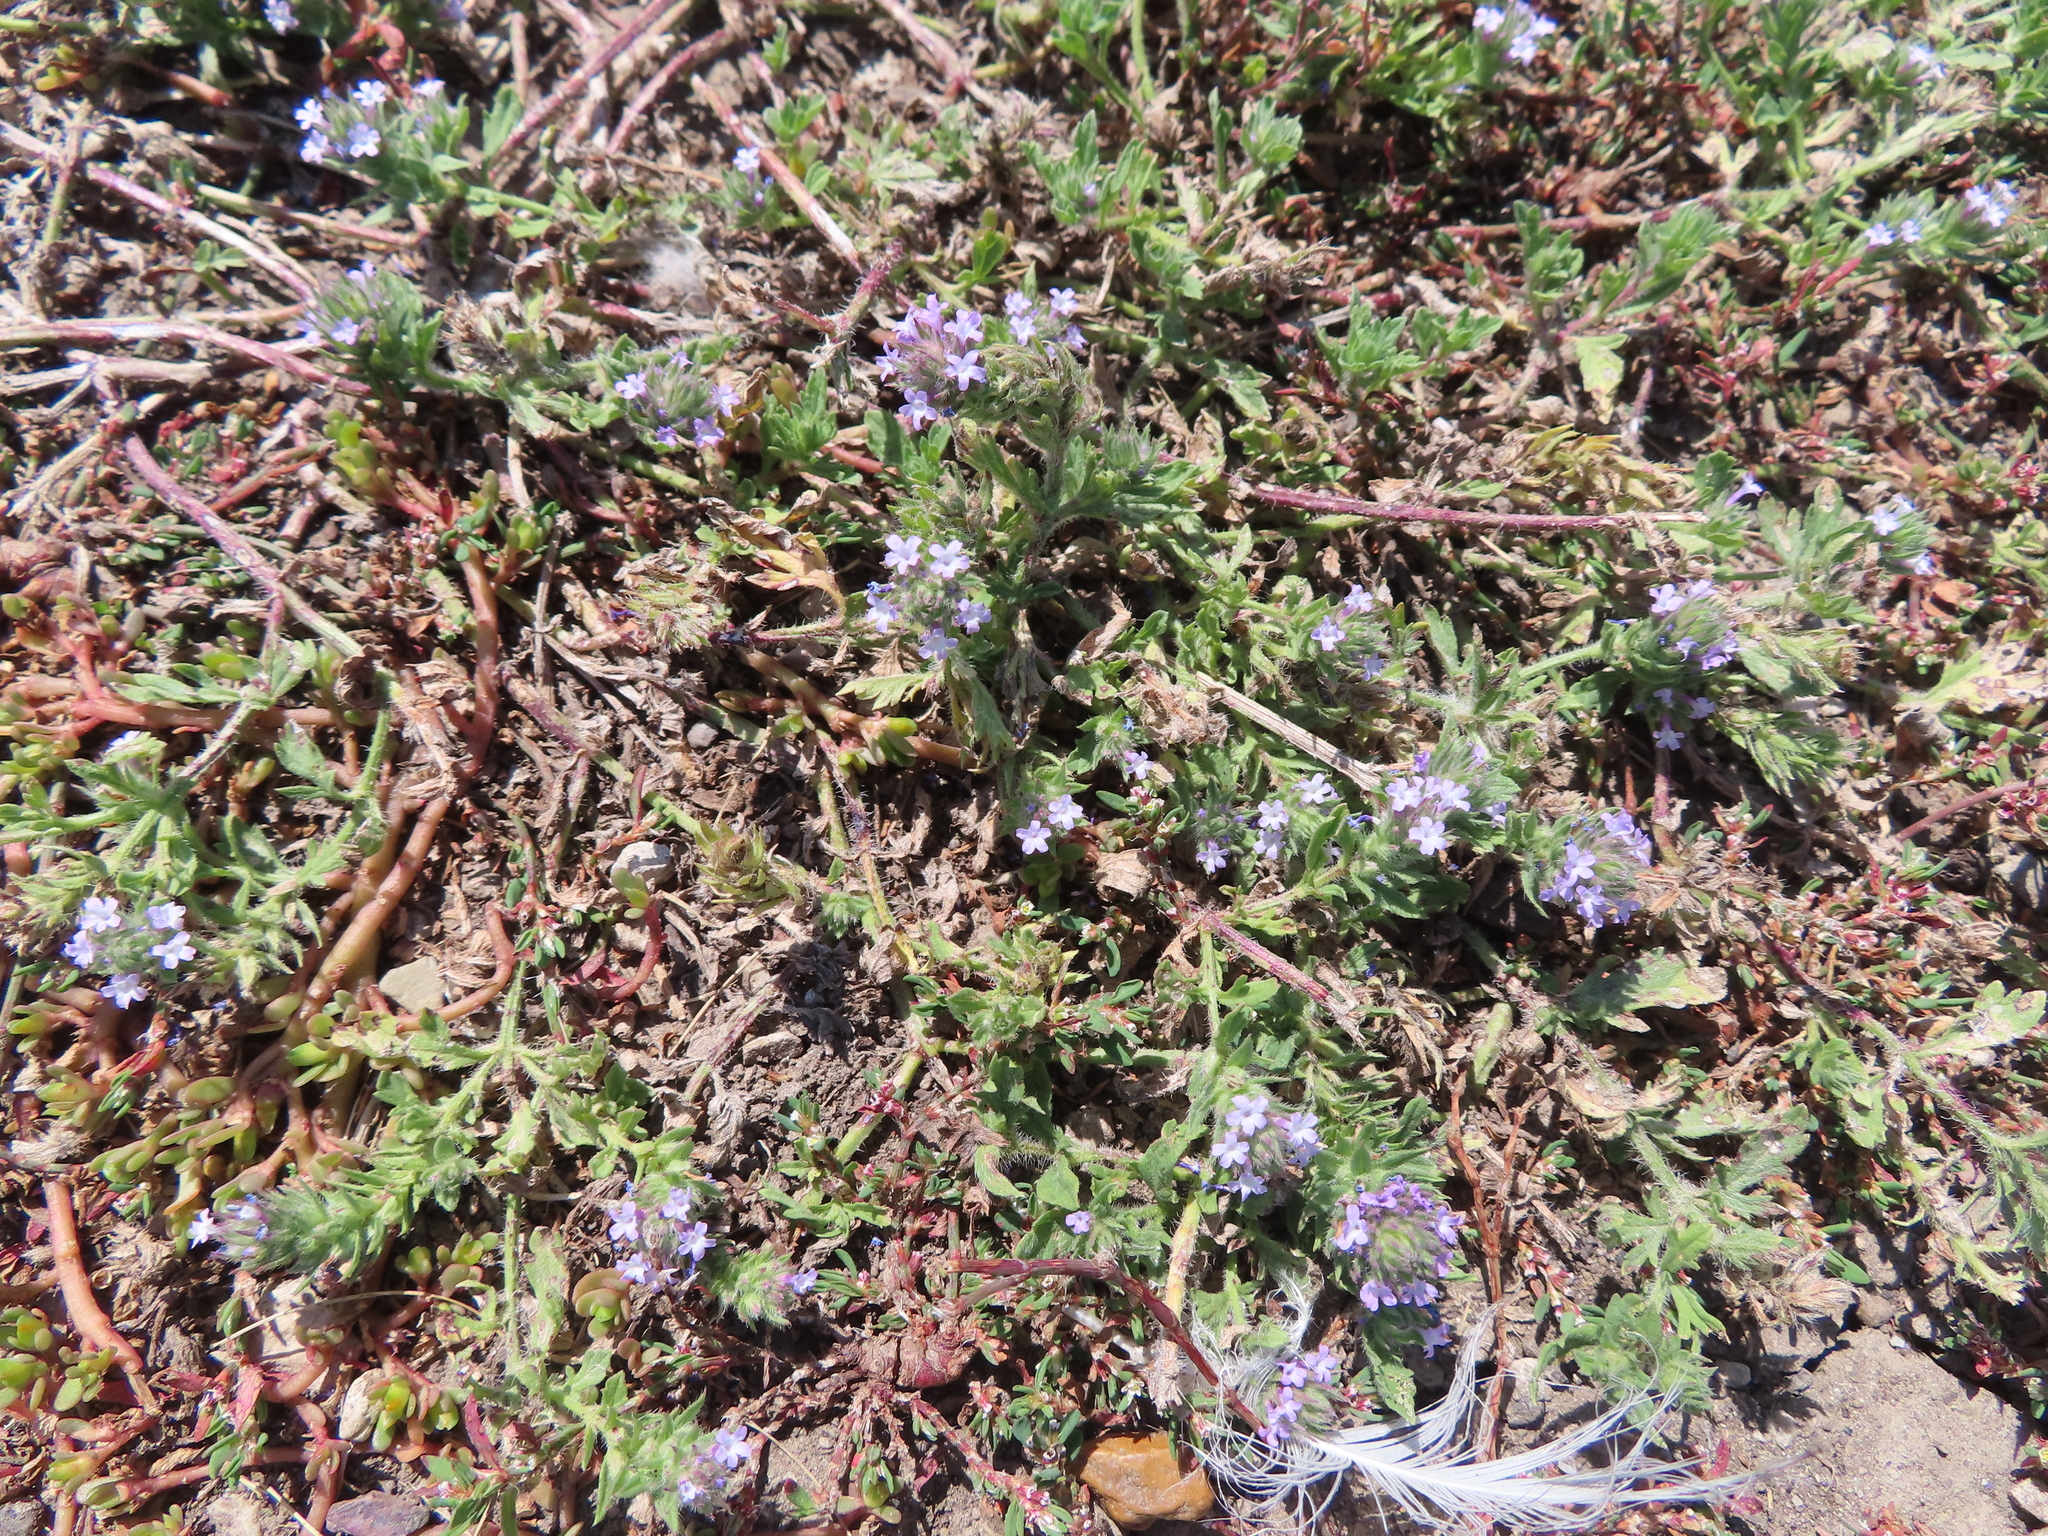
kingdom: Plantae
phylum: Tracheophyta
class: Magnoliopsida
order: Lamiales
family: Verbenaceae
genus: Verbena
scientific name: Verbena bracteata
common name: Bracted vervain
